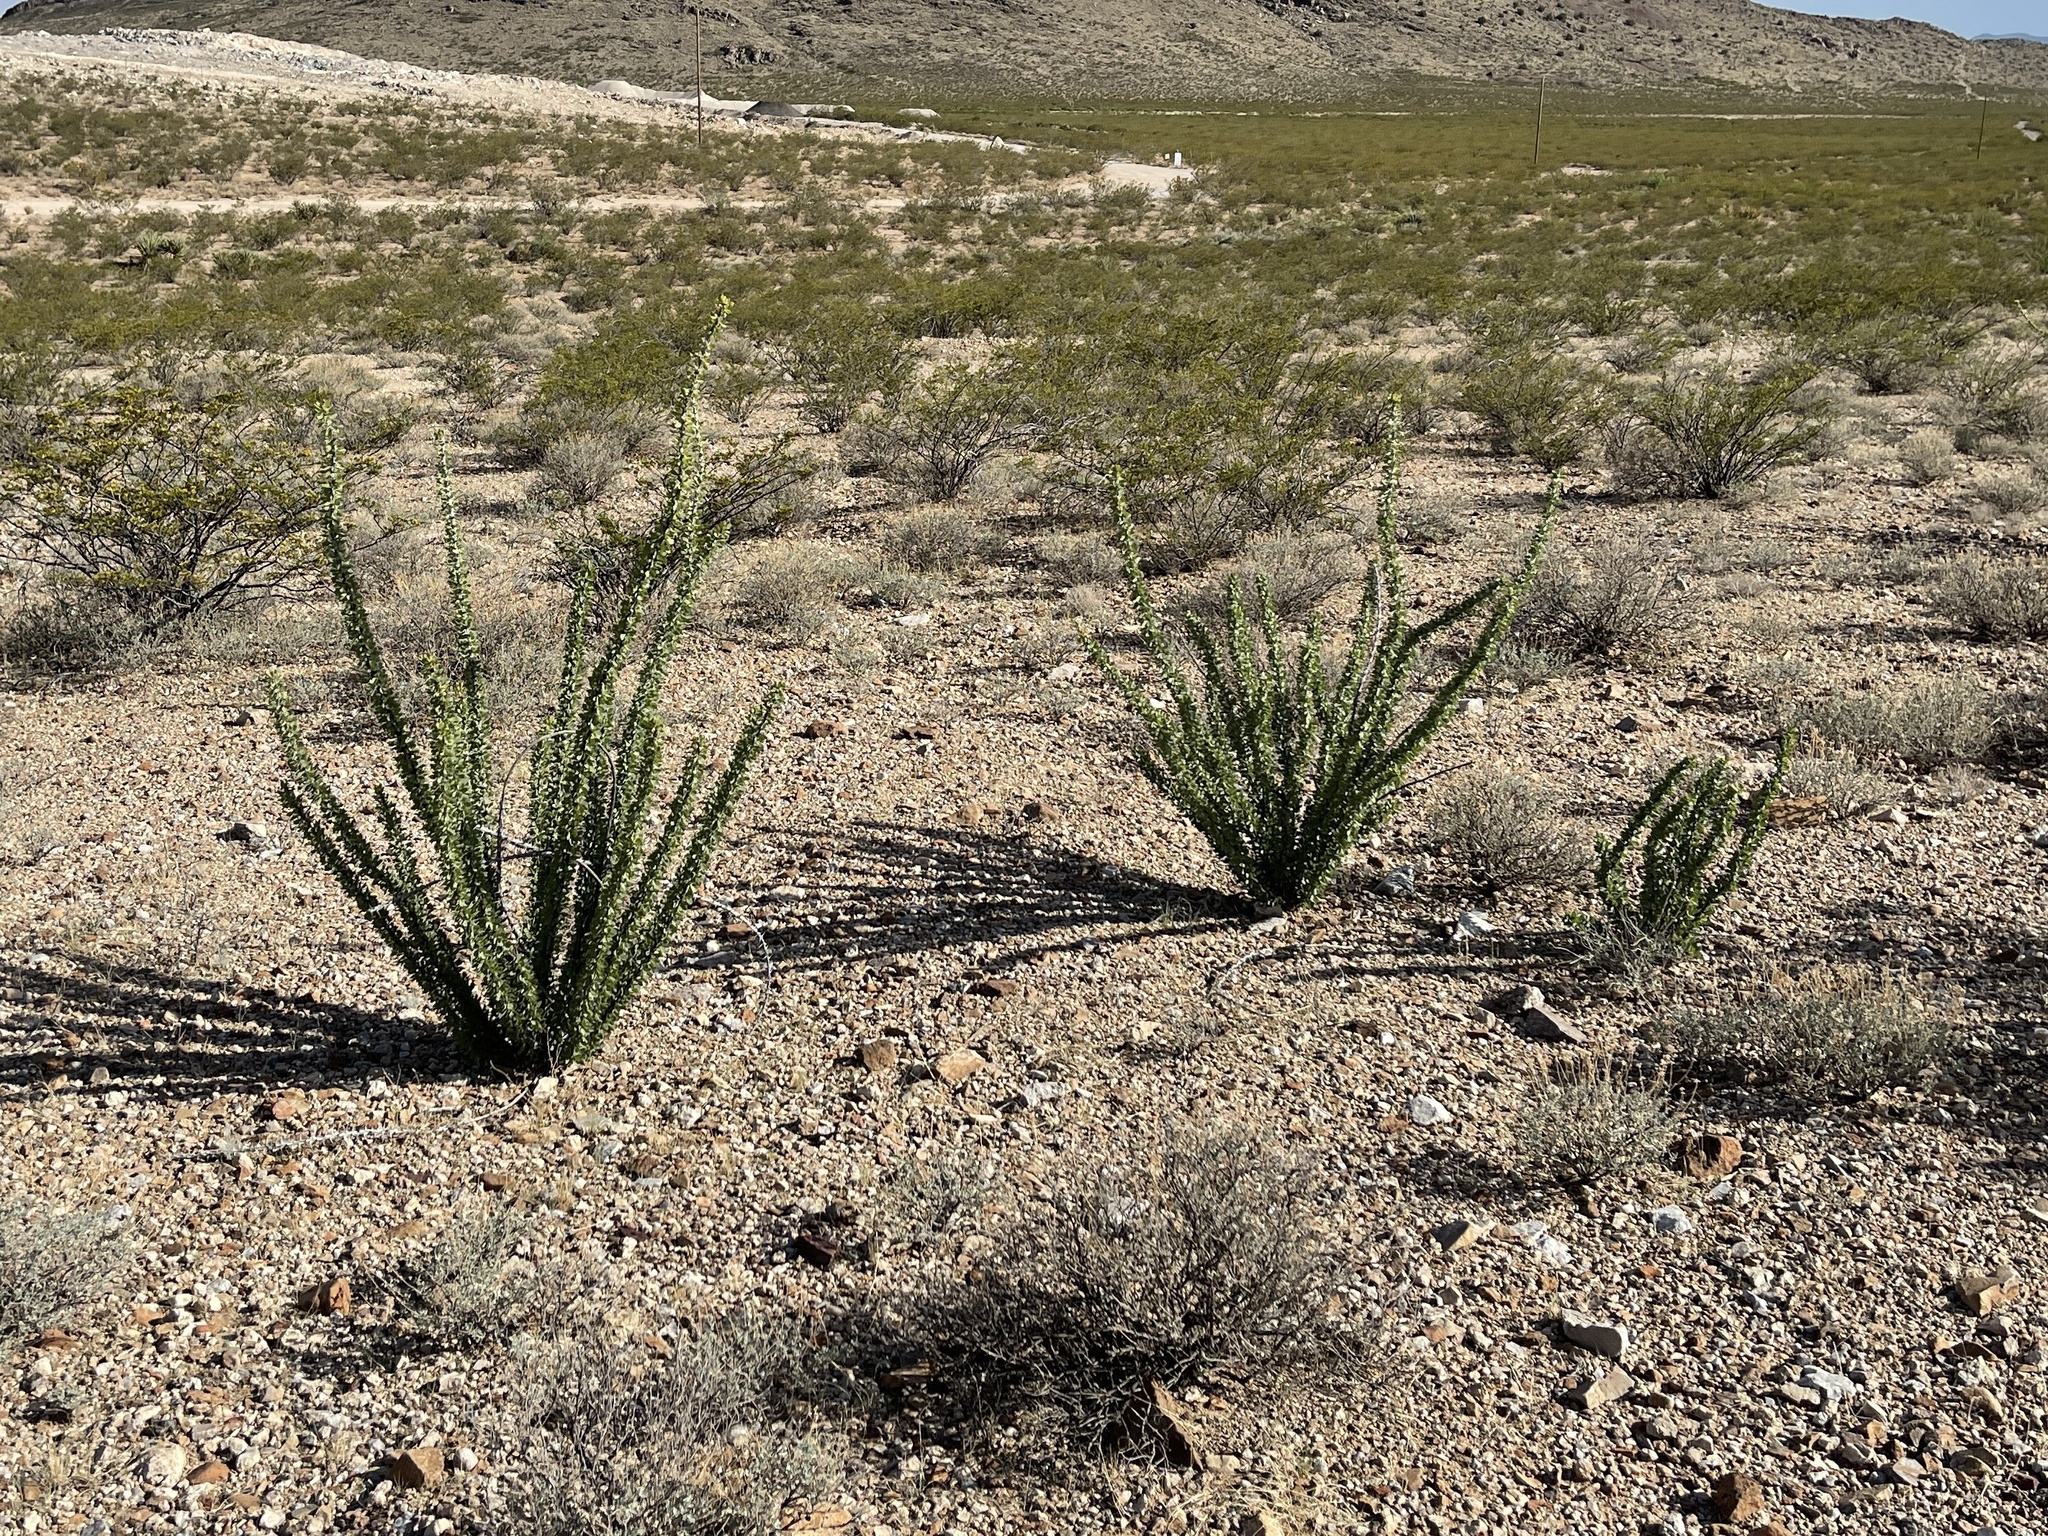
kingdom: Plantae
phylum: Tracheophyta
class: Magnoliopsida
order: Ericales
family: Fouquieriaceae
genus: Fouquieria
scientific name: Fouquieria splendens
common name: Vine-cactus
